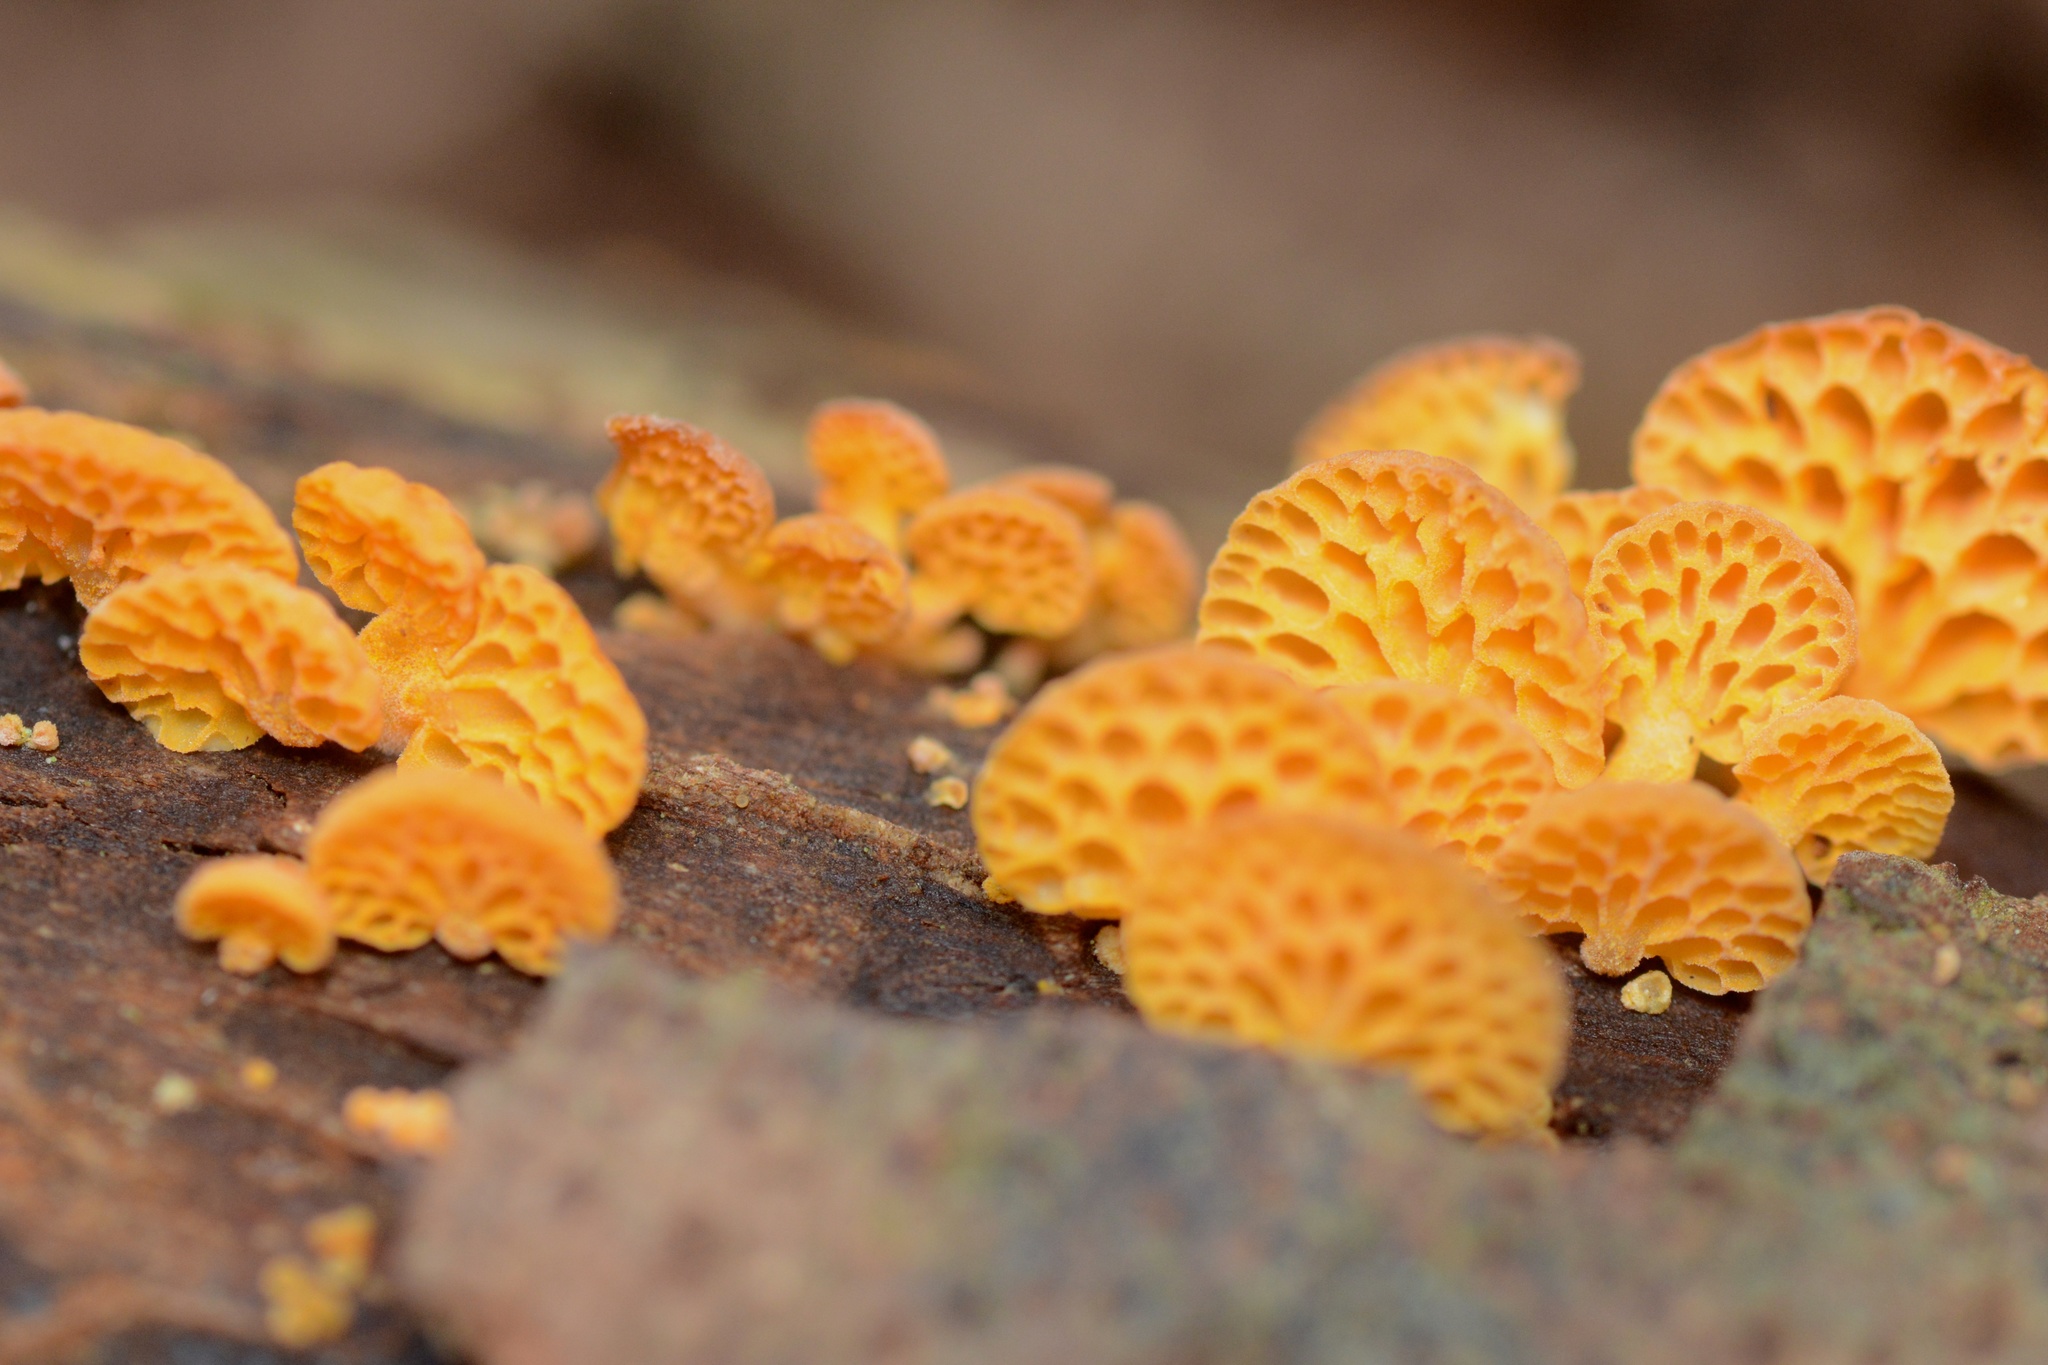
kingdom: Fungi
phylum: Basidiomycota
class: Agaricomycetes
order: Agaricales
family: Mycenaceae
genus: Favolaschia
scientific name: Favolaschia claudopus
